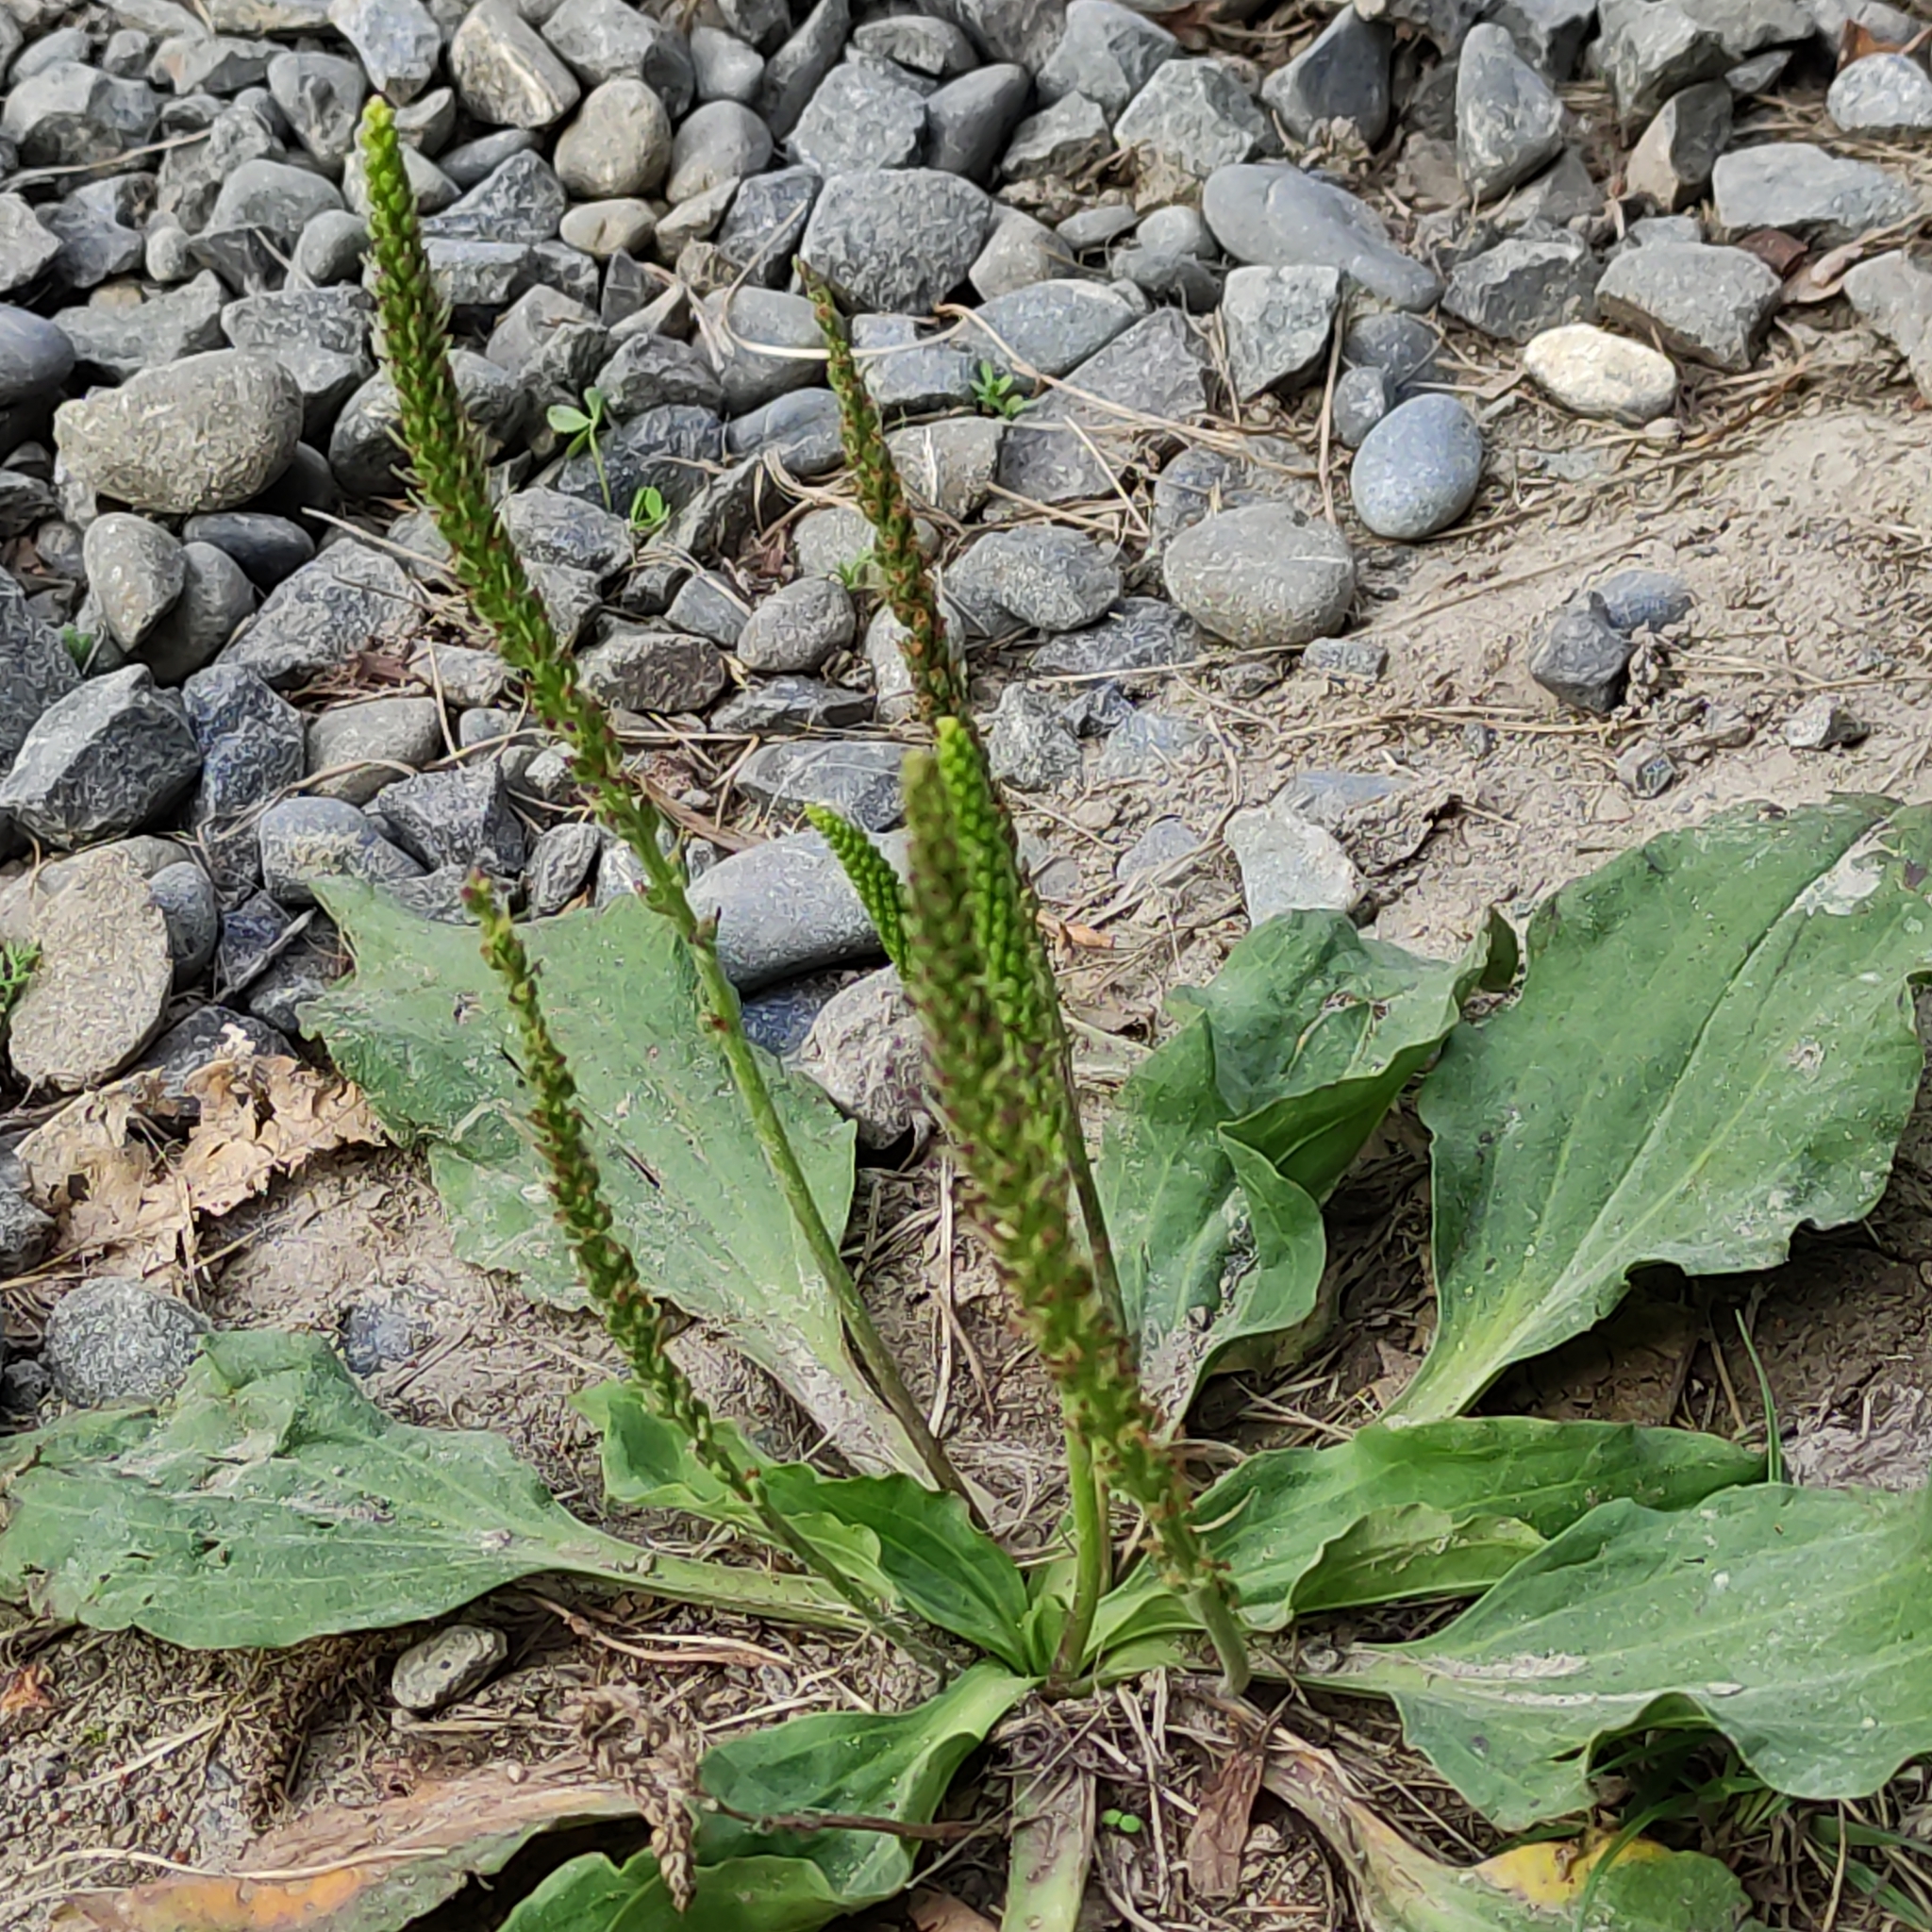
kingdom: Plantae
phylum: Tracheophyta
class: Magnoliopsida
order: Lamiales
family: Plantaginaceae
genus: Plantago
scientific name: Plantago major
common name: Common plantain
